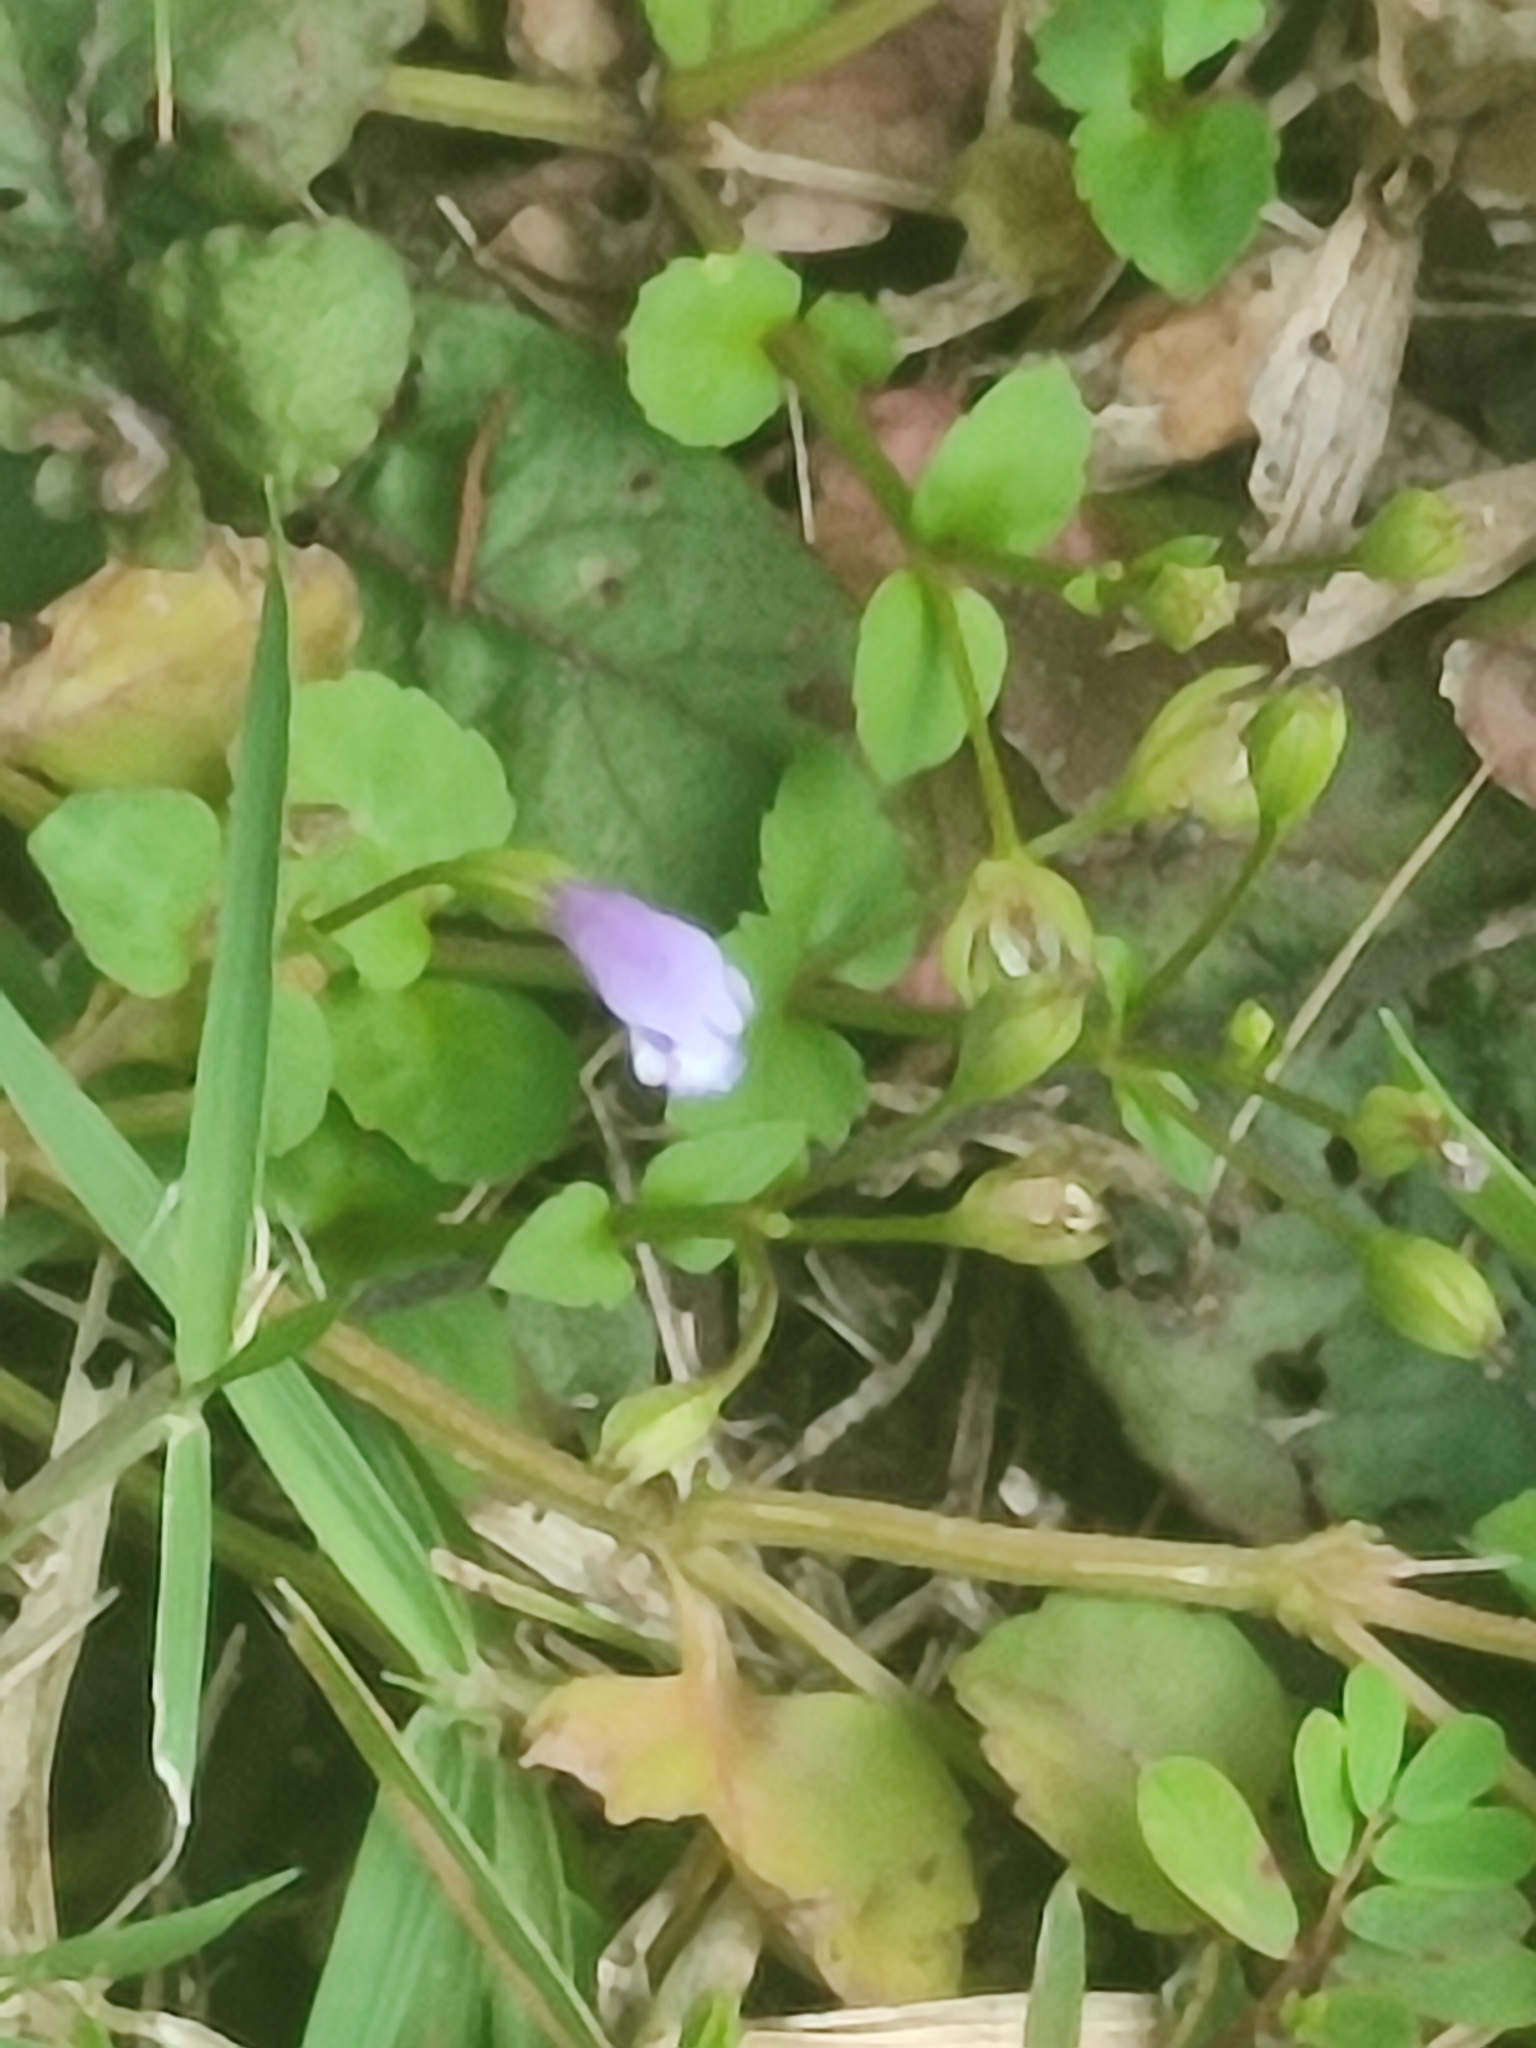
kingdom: Plantae
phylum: Tracheophyta
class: Magnoliopsida
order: Lamiales
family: Linderniaceae
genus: Torenia
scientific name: Torenia crustacea
